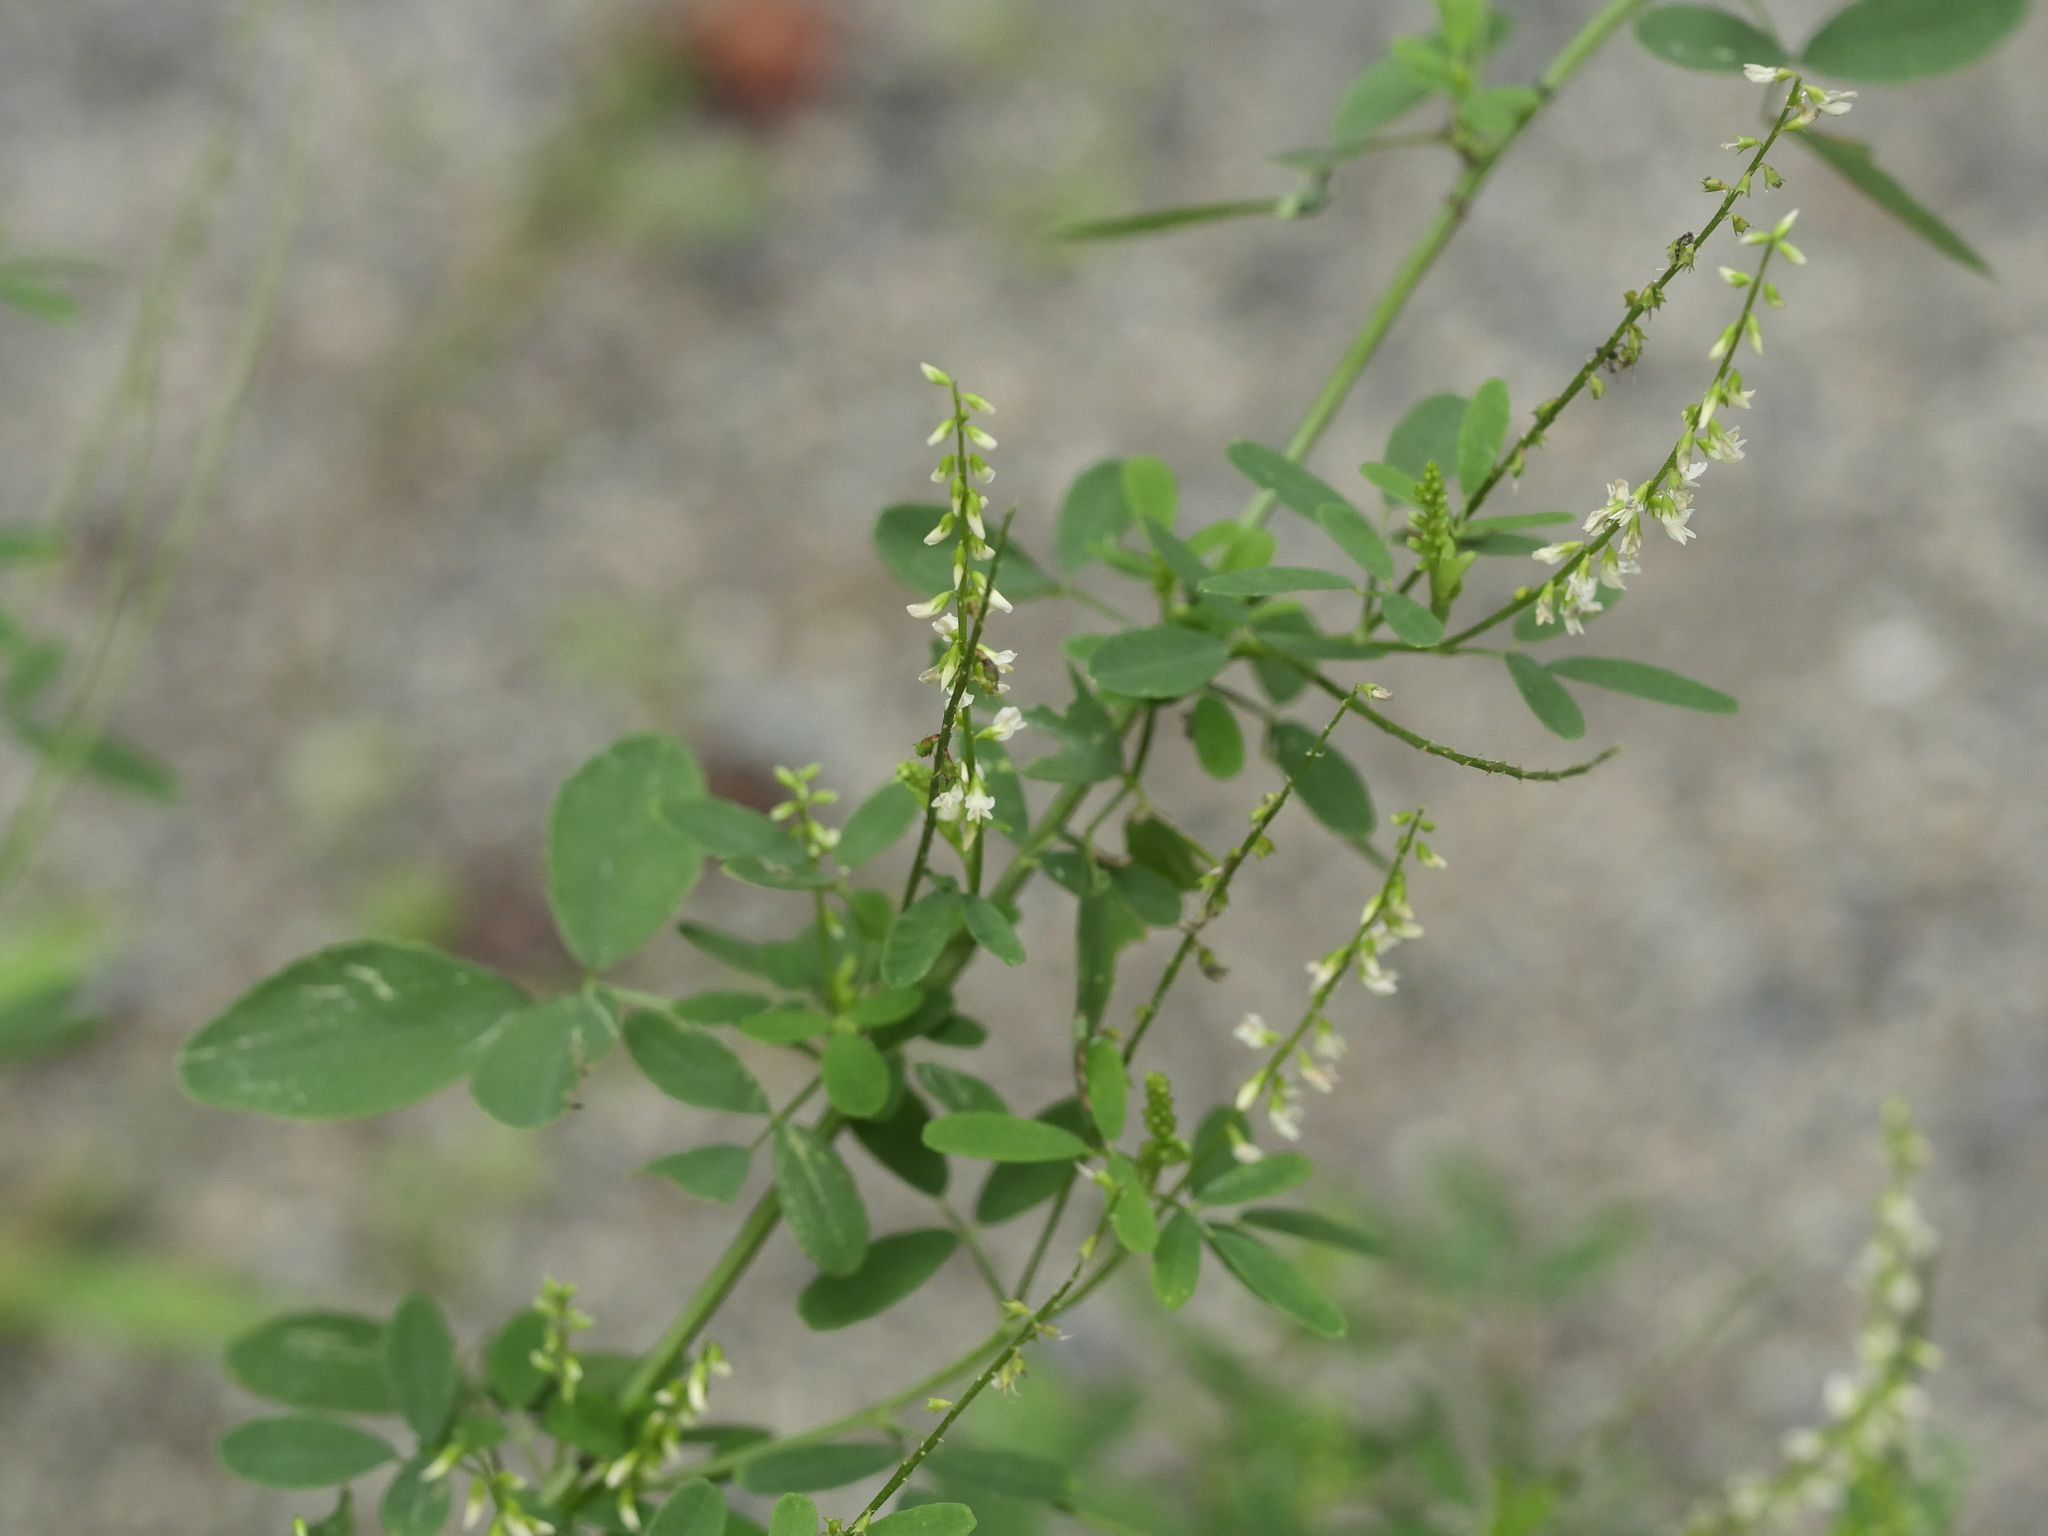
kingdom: Plantae
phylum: Tracheophyta
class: Magnoliopsida
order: Fabales
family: Fabaceae
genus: Melilotus
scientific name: Melilotus albus
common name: White melilot
